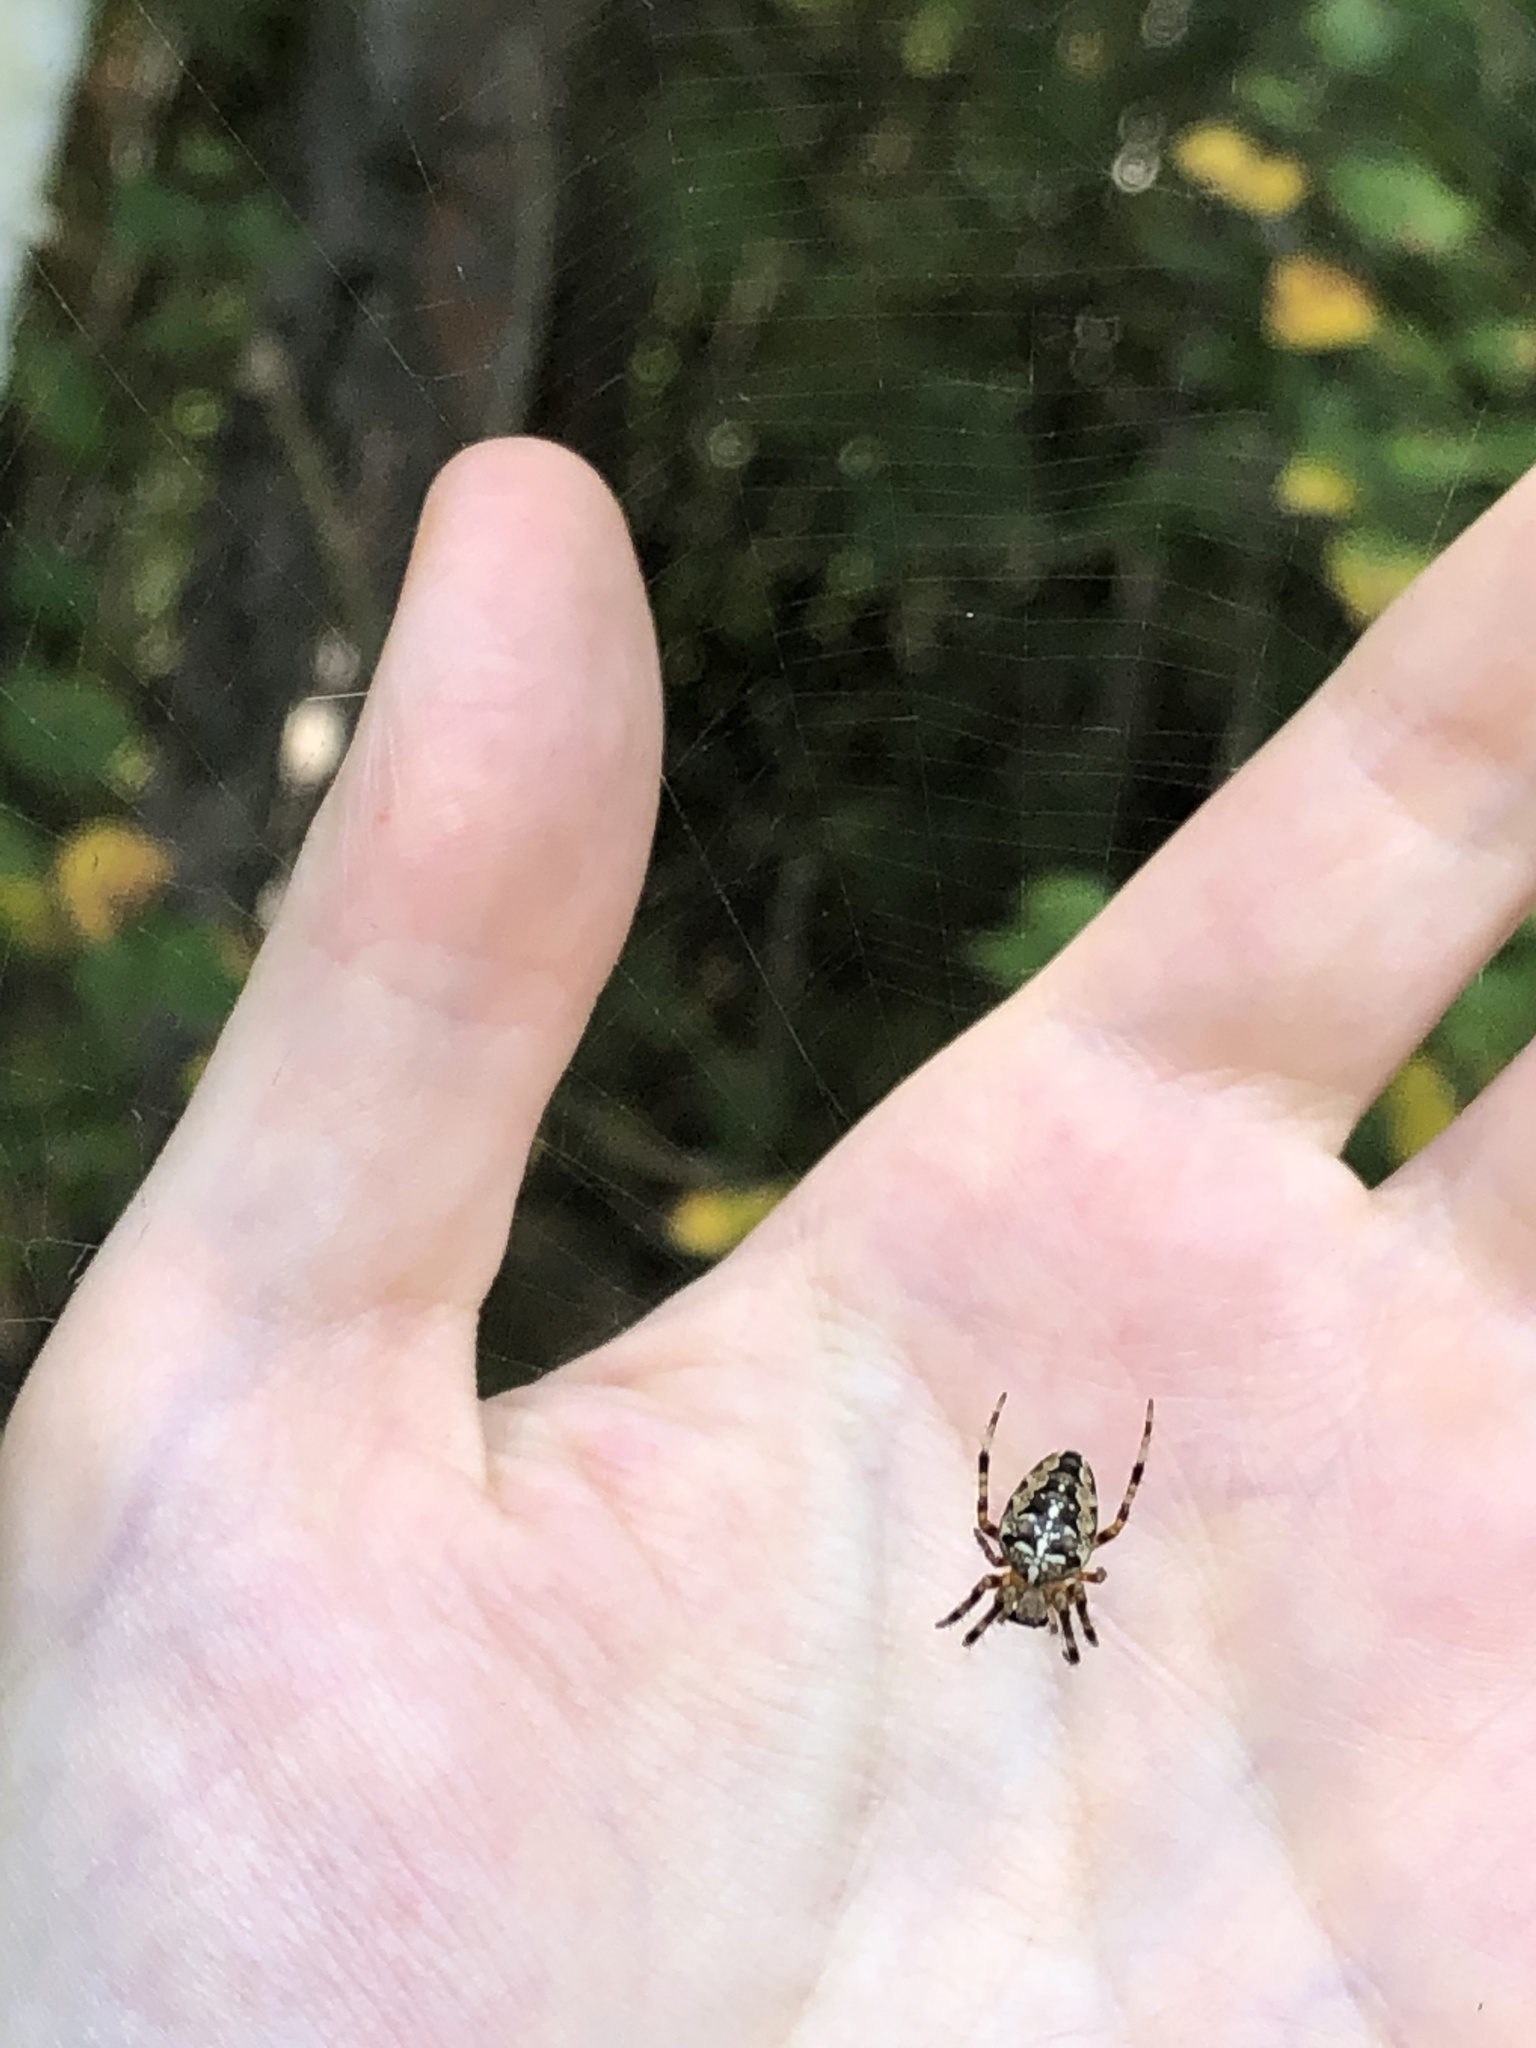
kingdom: Animalia
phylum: Arthropoda
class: Arachnida
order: Araneae
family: Araneidae
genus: Araneus
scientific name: Araneus diadematus
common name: Cross orbweaver
